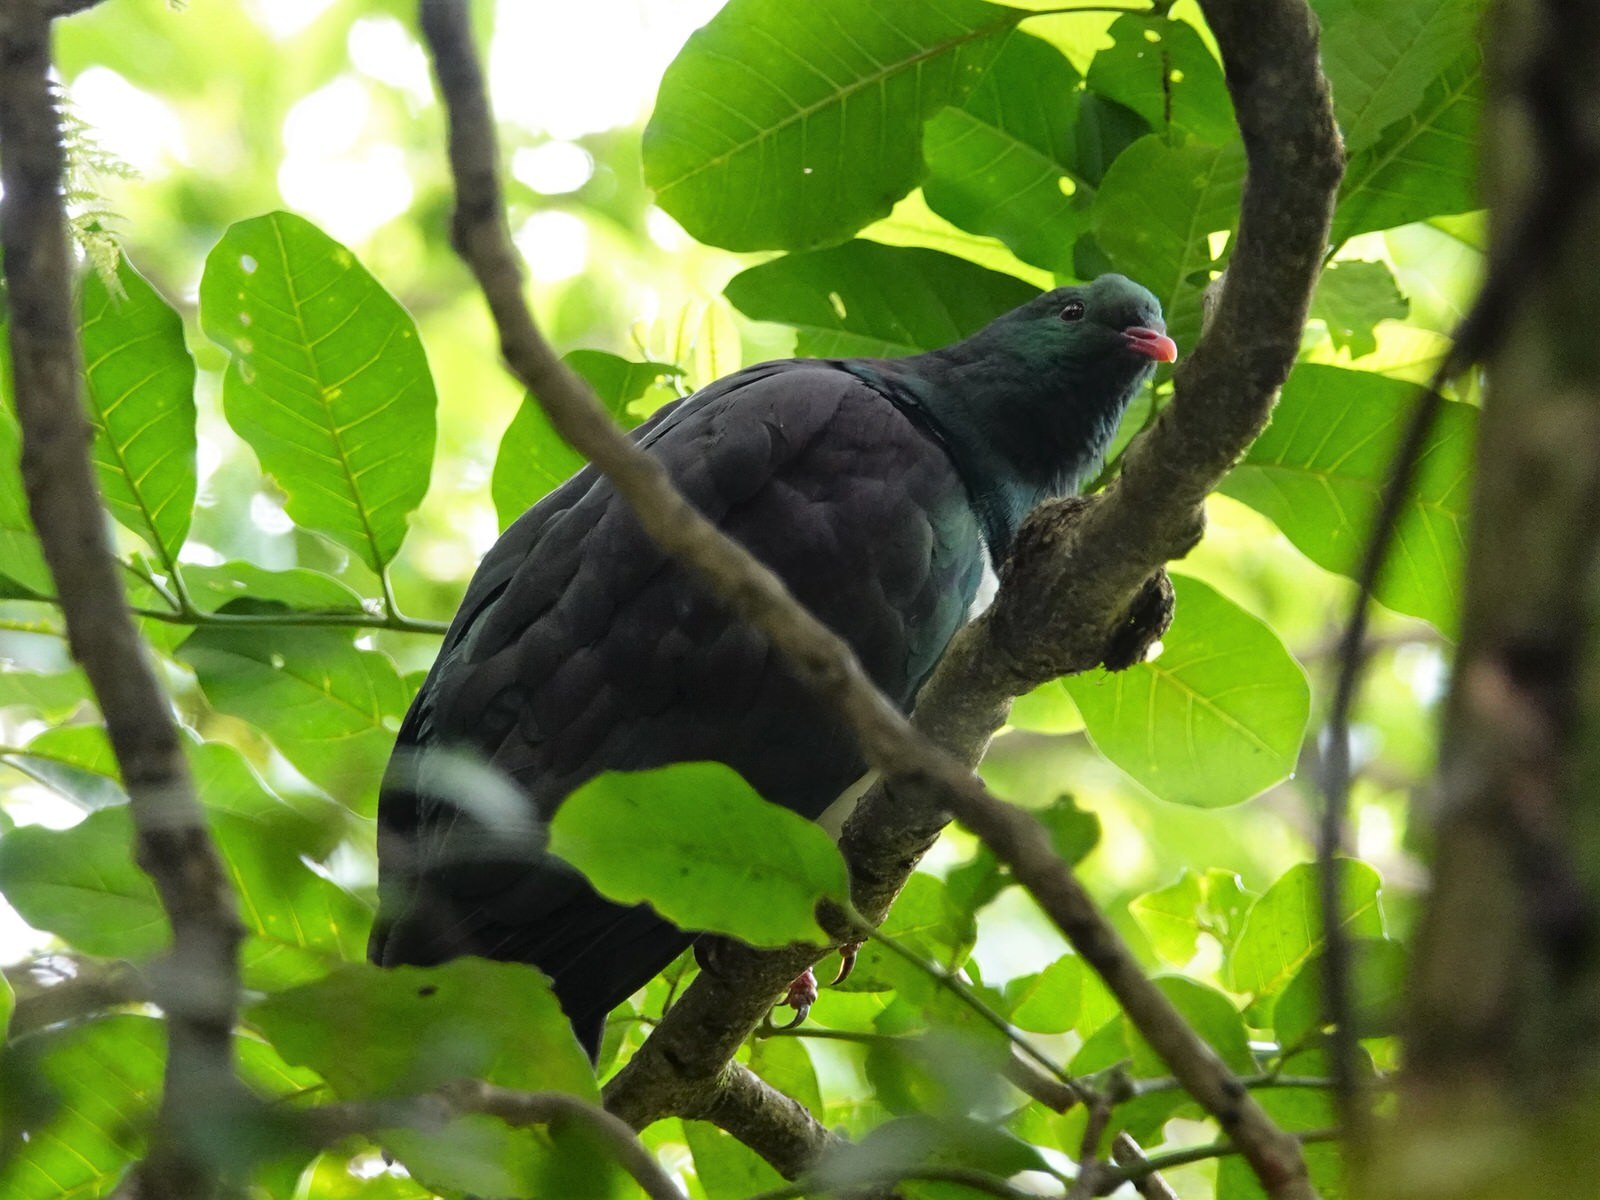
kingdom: Animalia
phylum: Chordata
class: Aves
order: Columbiformes
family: Columbidae
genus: Hemiphaga
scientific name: Hemiphaga novaeseelandiae
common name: New zealand pigeon
